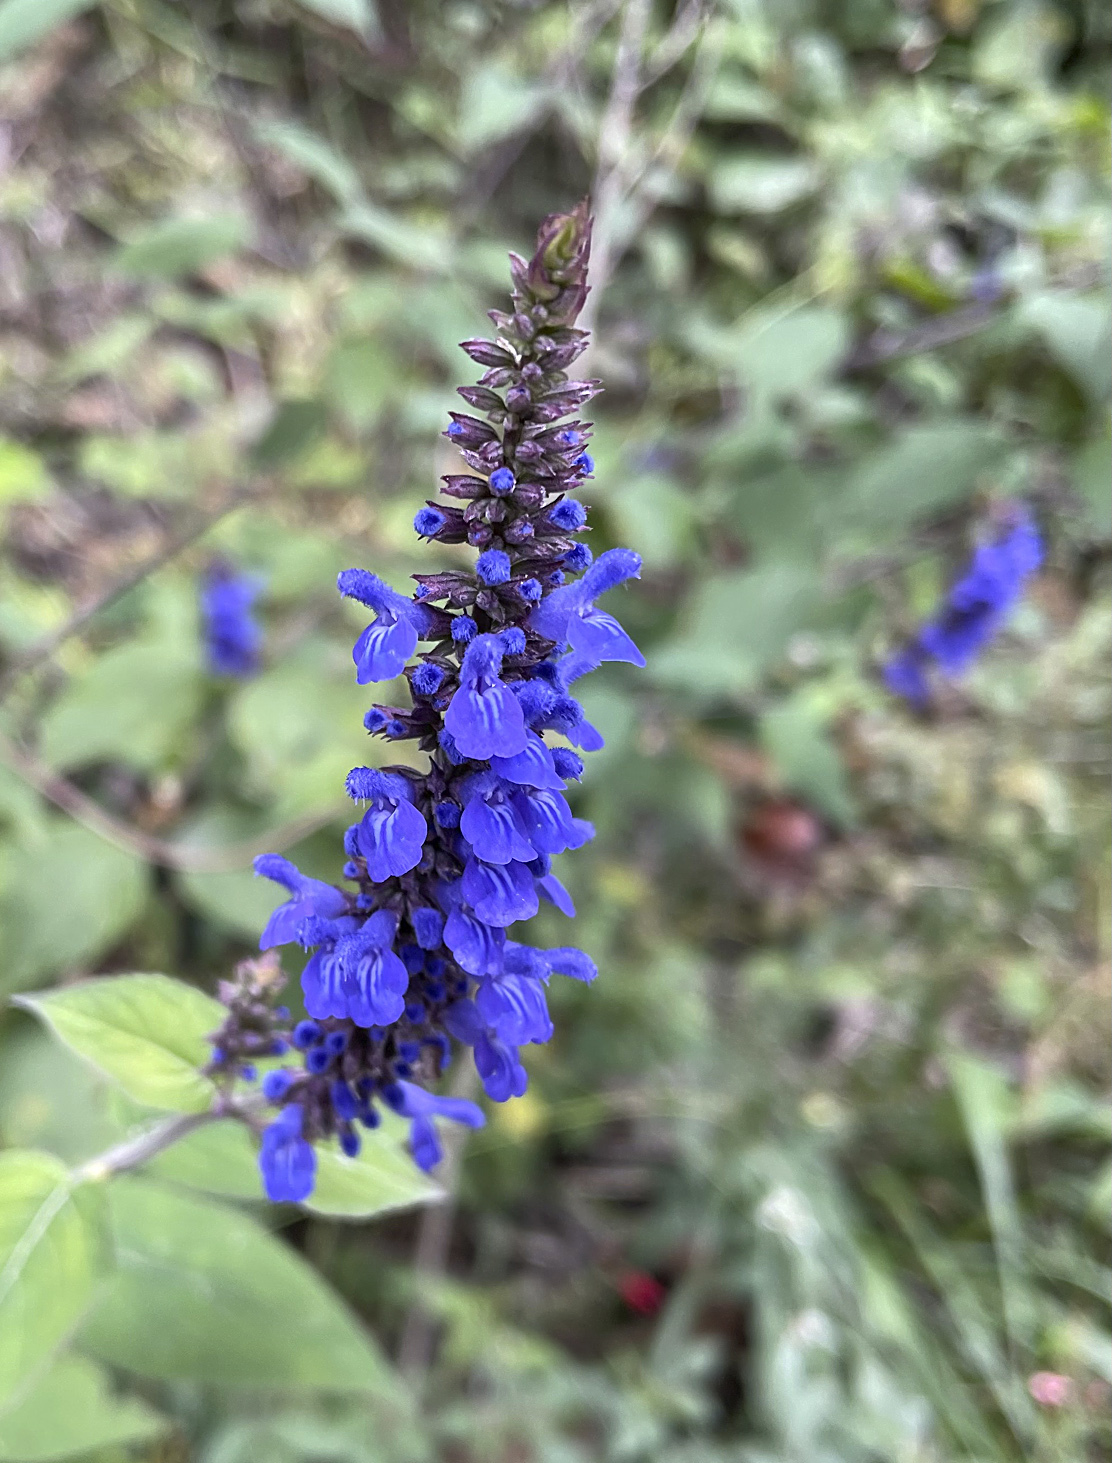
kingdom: Plantae
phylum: Tracheophyta
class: Magnoliopsida
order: Lamiales
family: Lamiaceae
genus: Salvia
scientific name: Salvia polystachia
